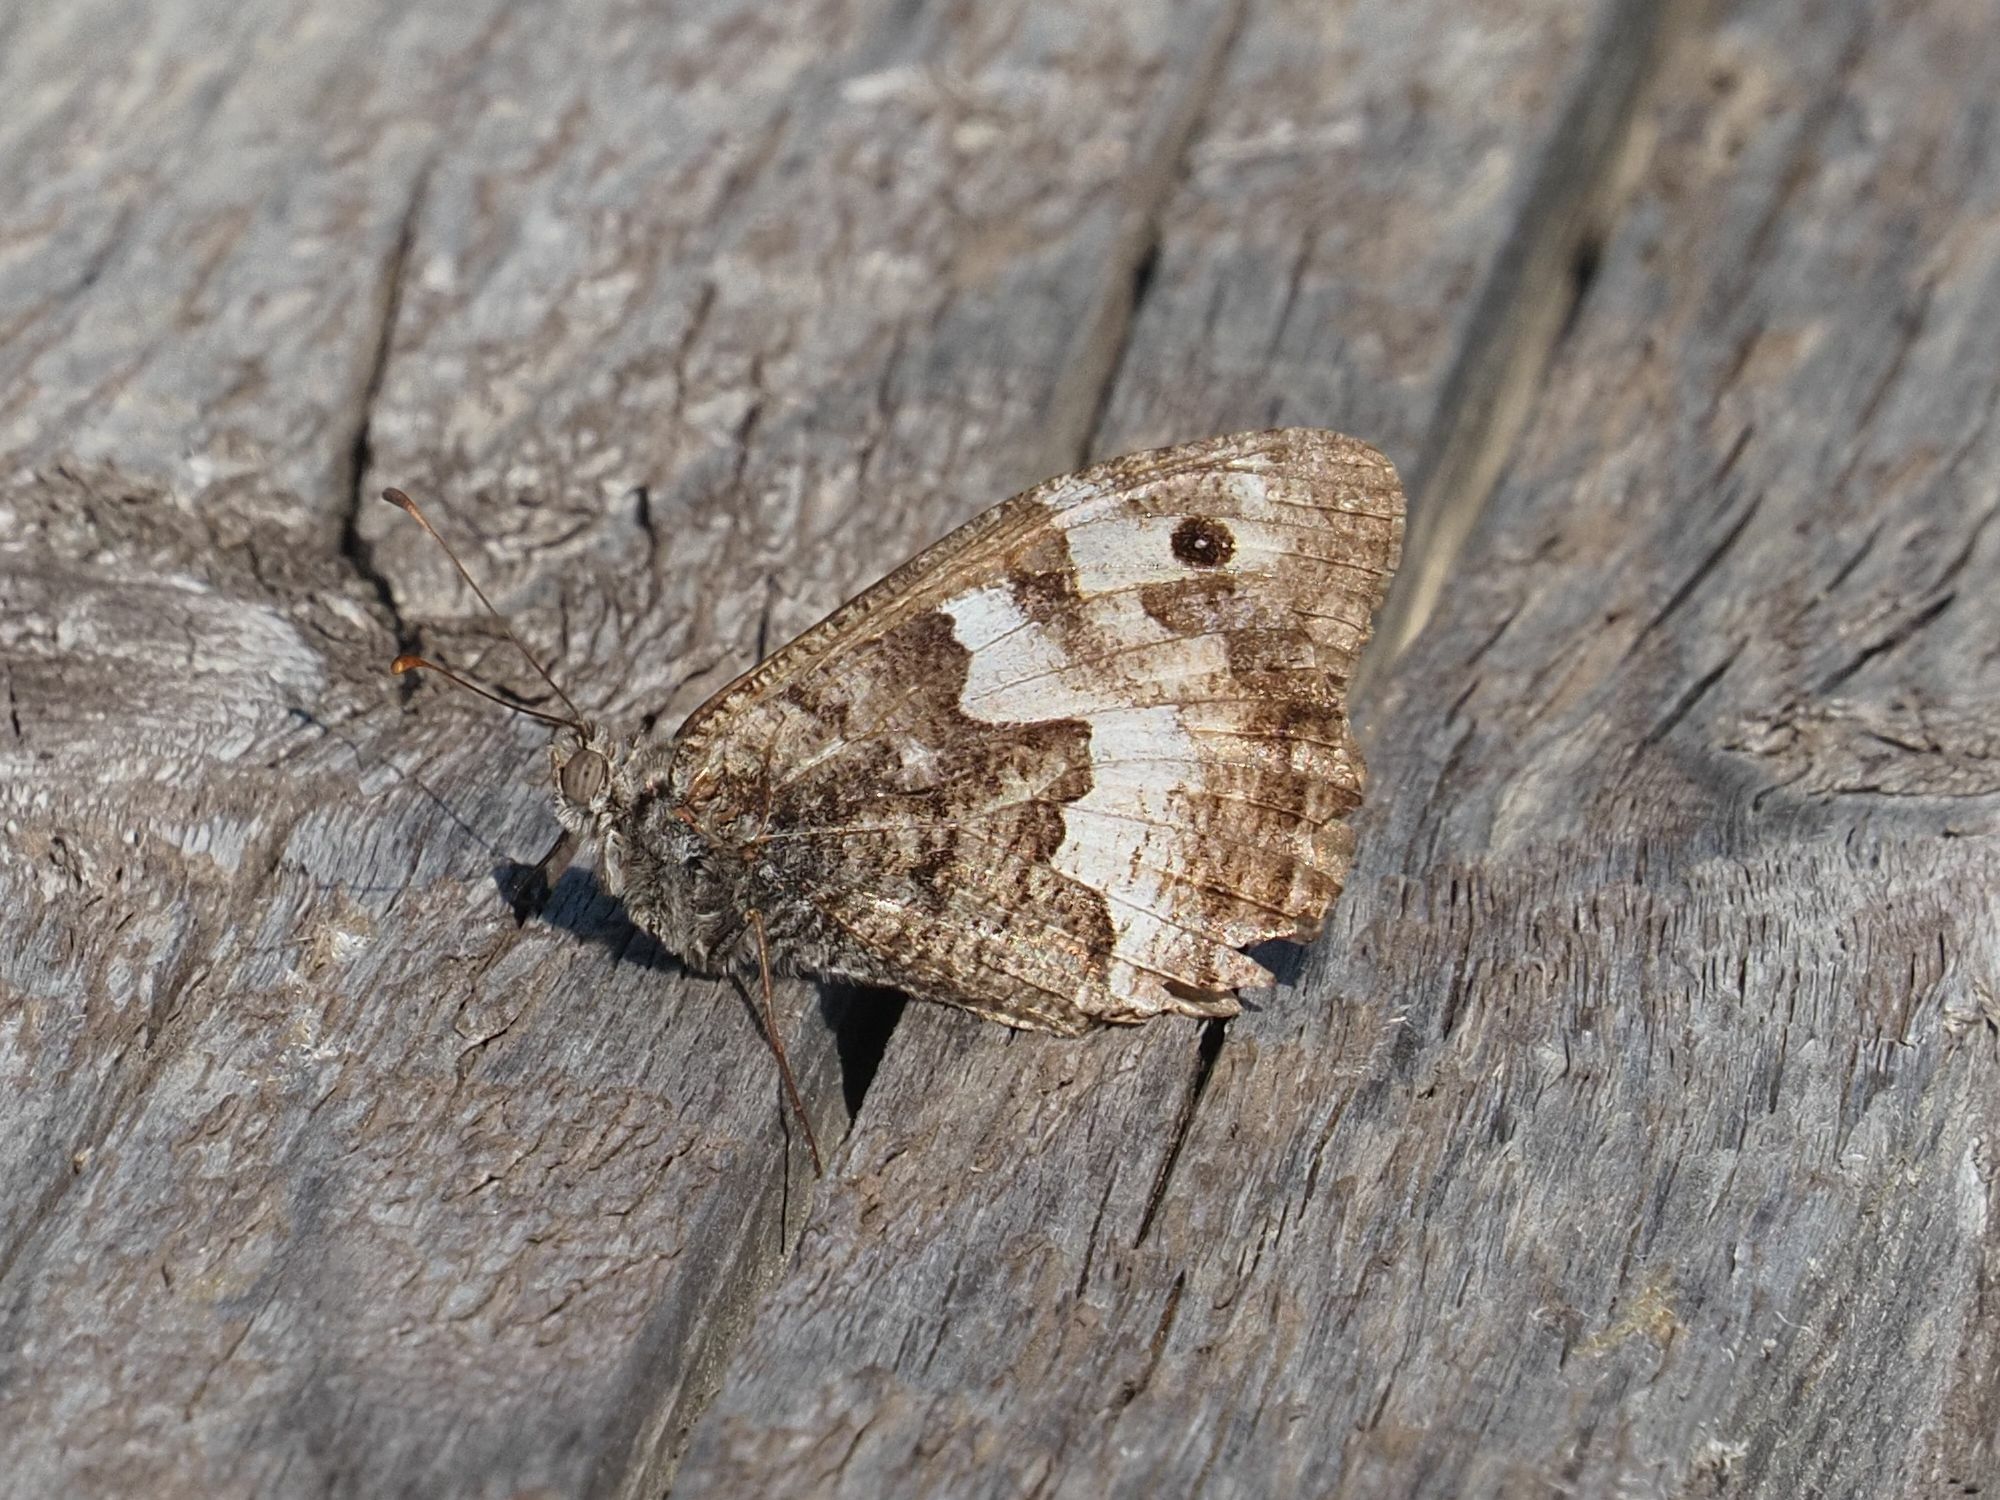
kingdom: Animalia
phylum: Arthropoda
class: Insecta
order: Lepidoptera
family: Nymphalidae
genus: Hipparchia
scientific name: Hipparchia semele
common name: Grayling
